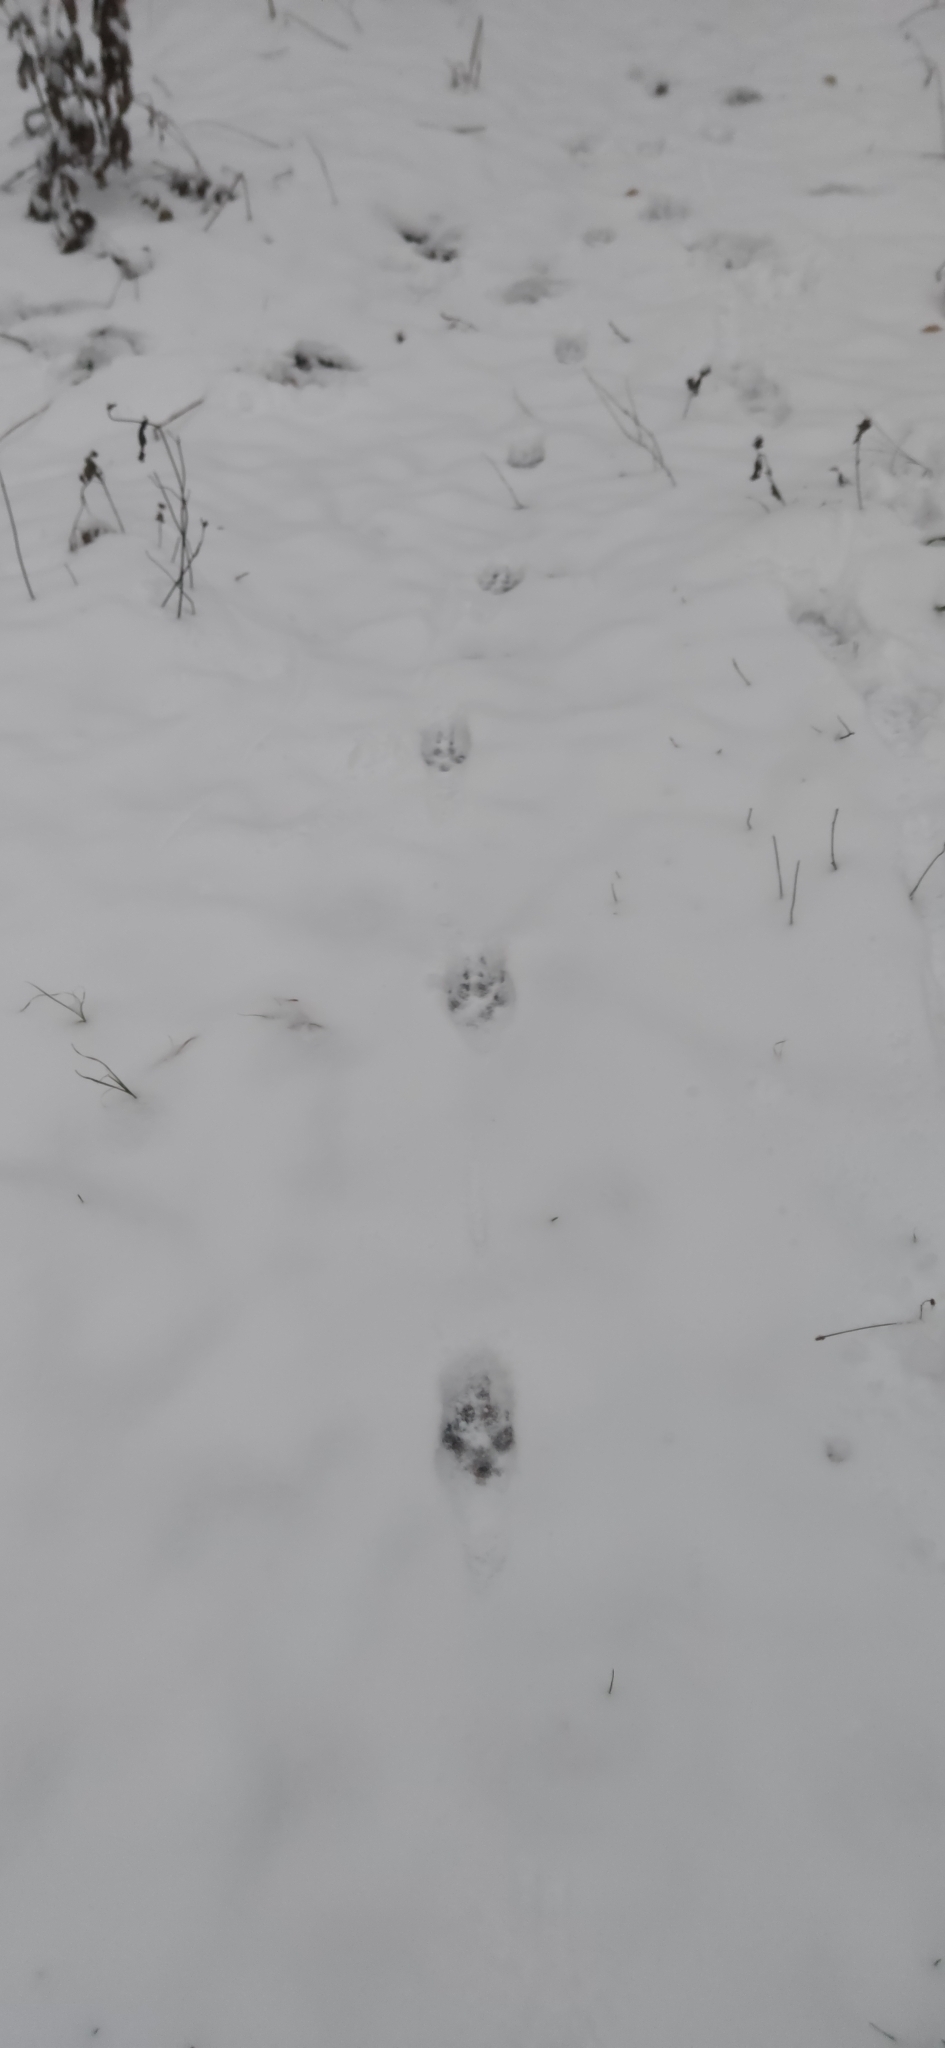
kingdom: Animalia
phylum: Chordata
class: Mammalia
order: Carnivora
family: Canidae
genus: Vulpes
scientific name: Vulpes vulpes
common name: Red fox
